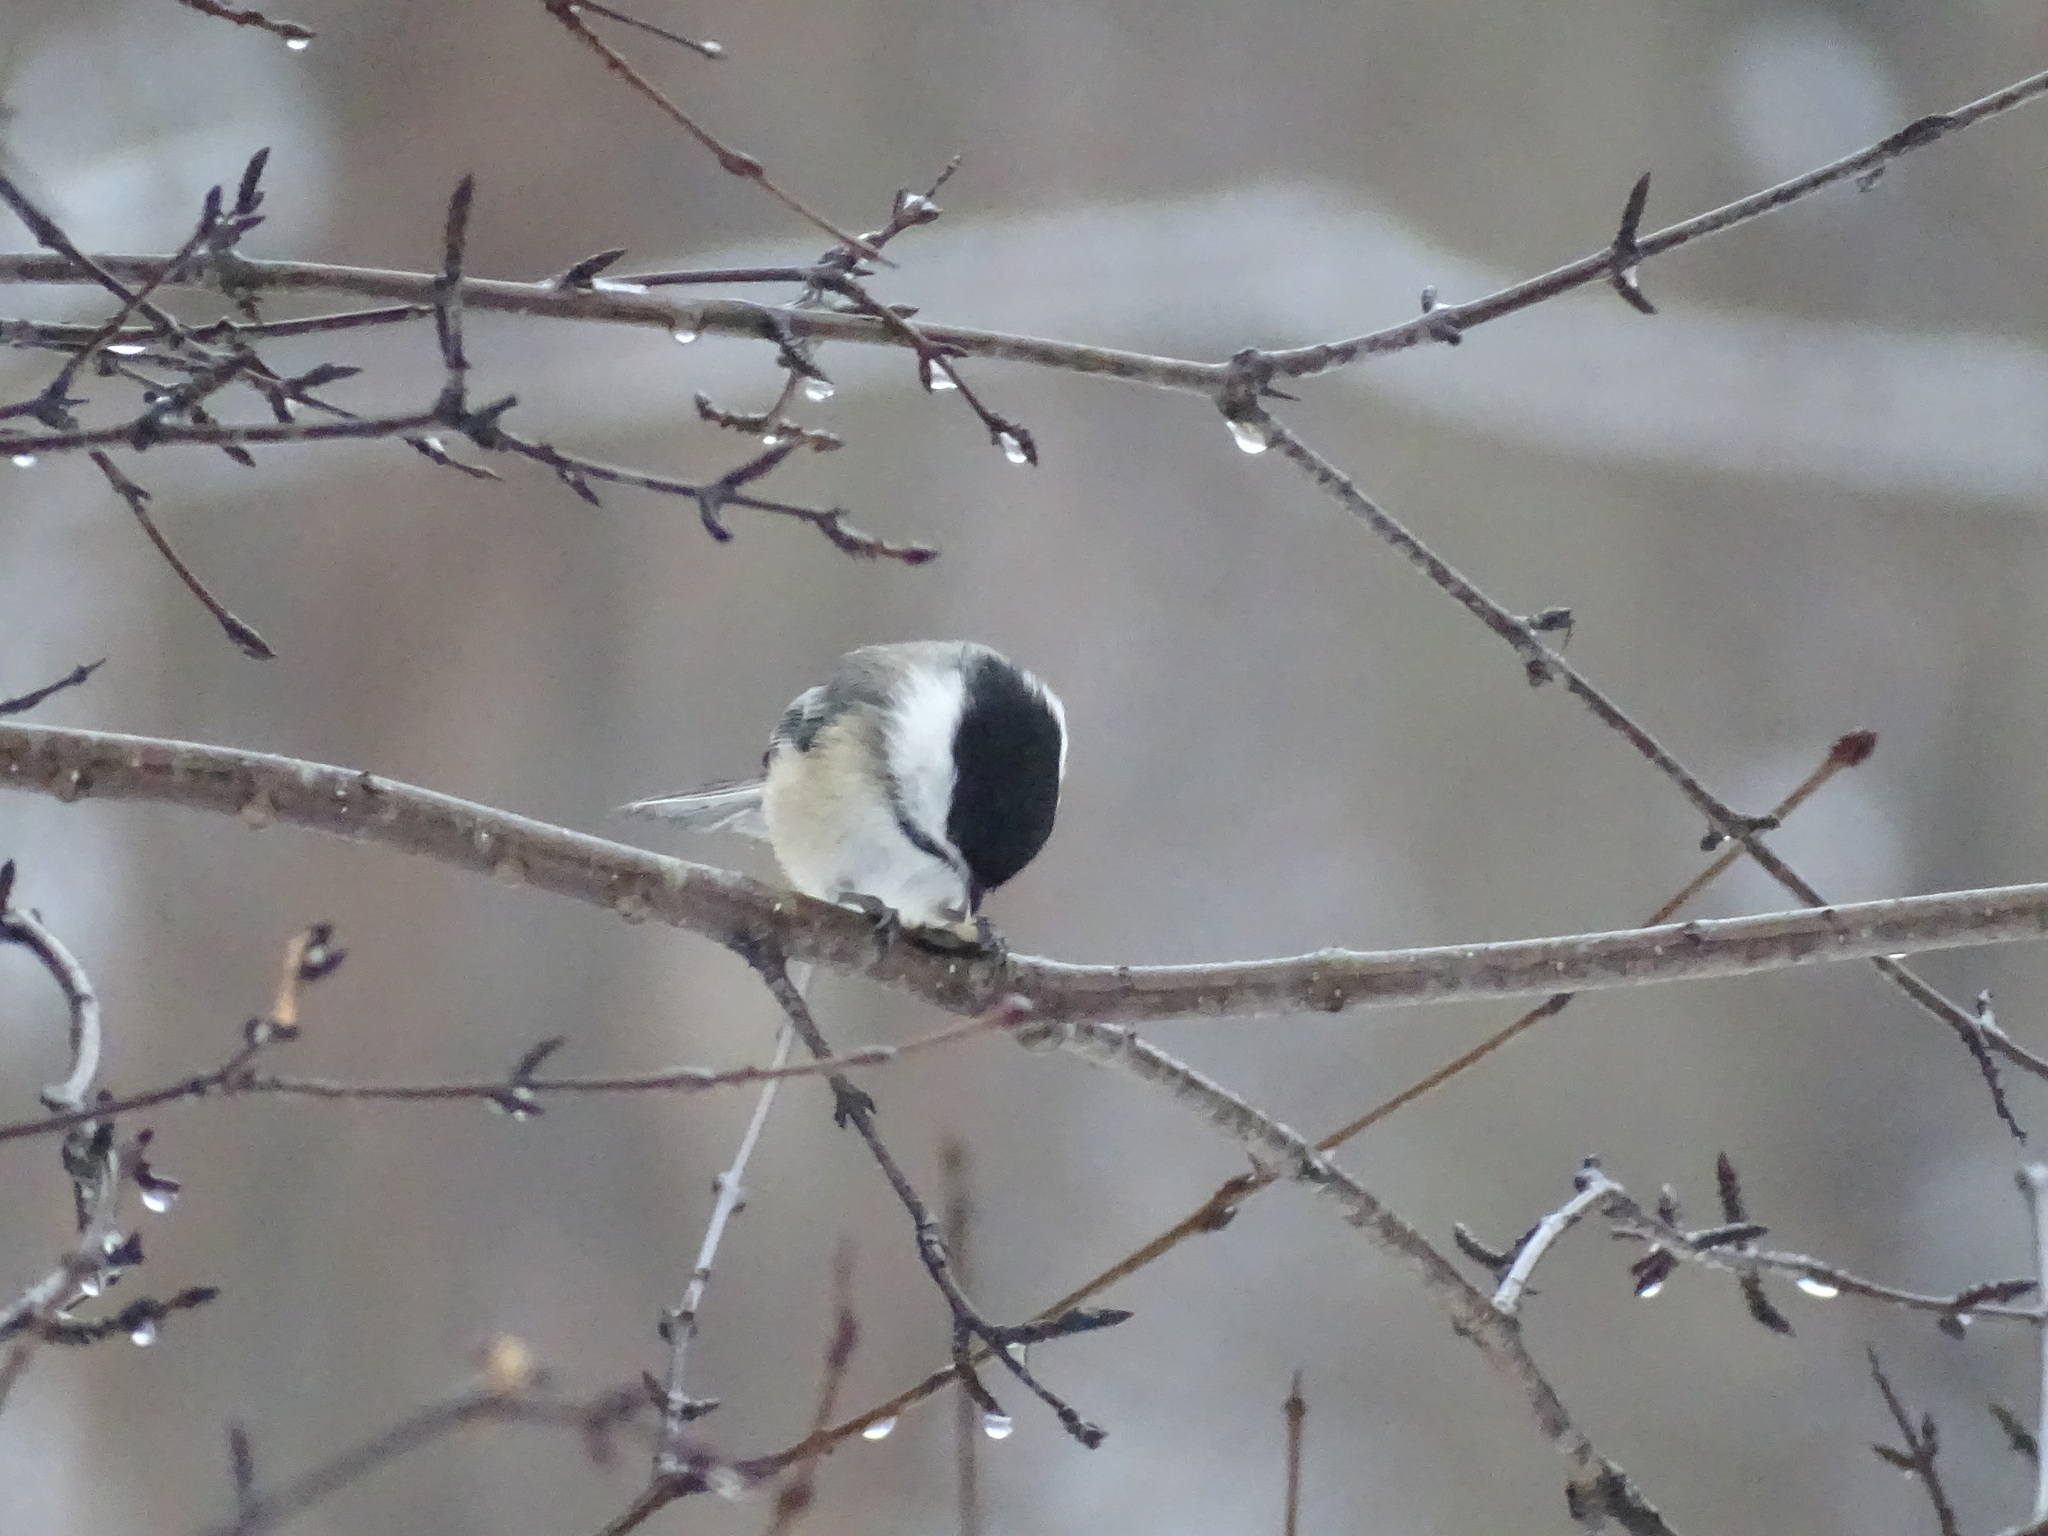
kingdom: Animalia
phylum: Chordata
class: Aves
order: Passeriformes
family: Paridae
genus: Poecile
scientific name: Poecile atricapillus
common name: Black-capped chickadee
